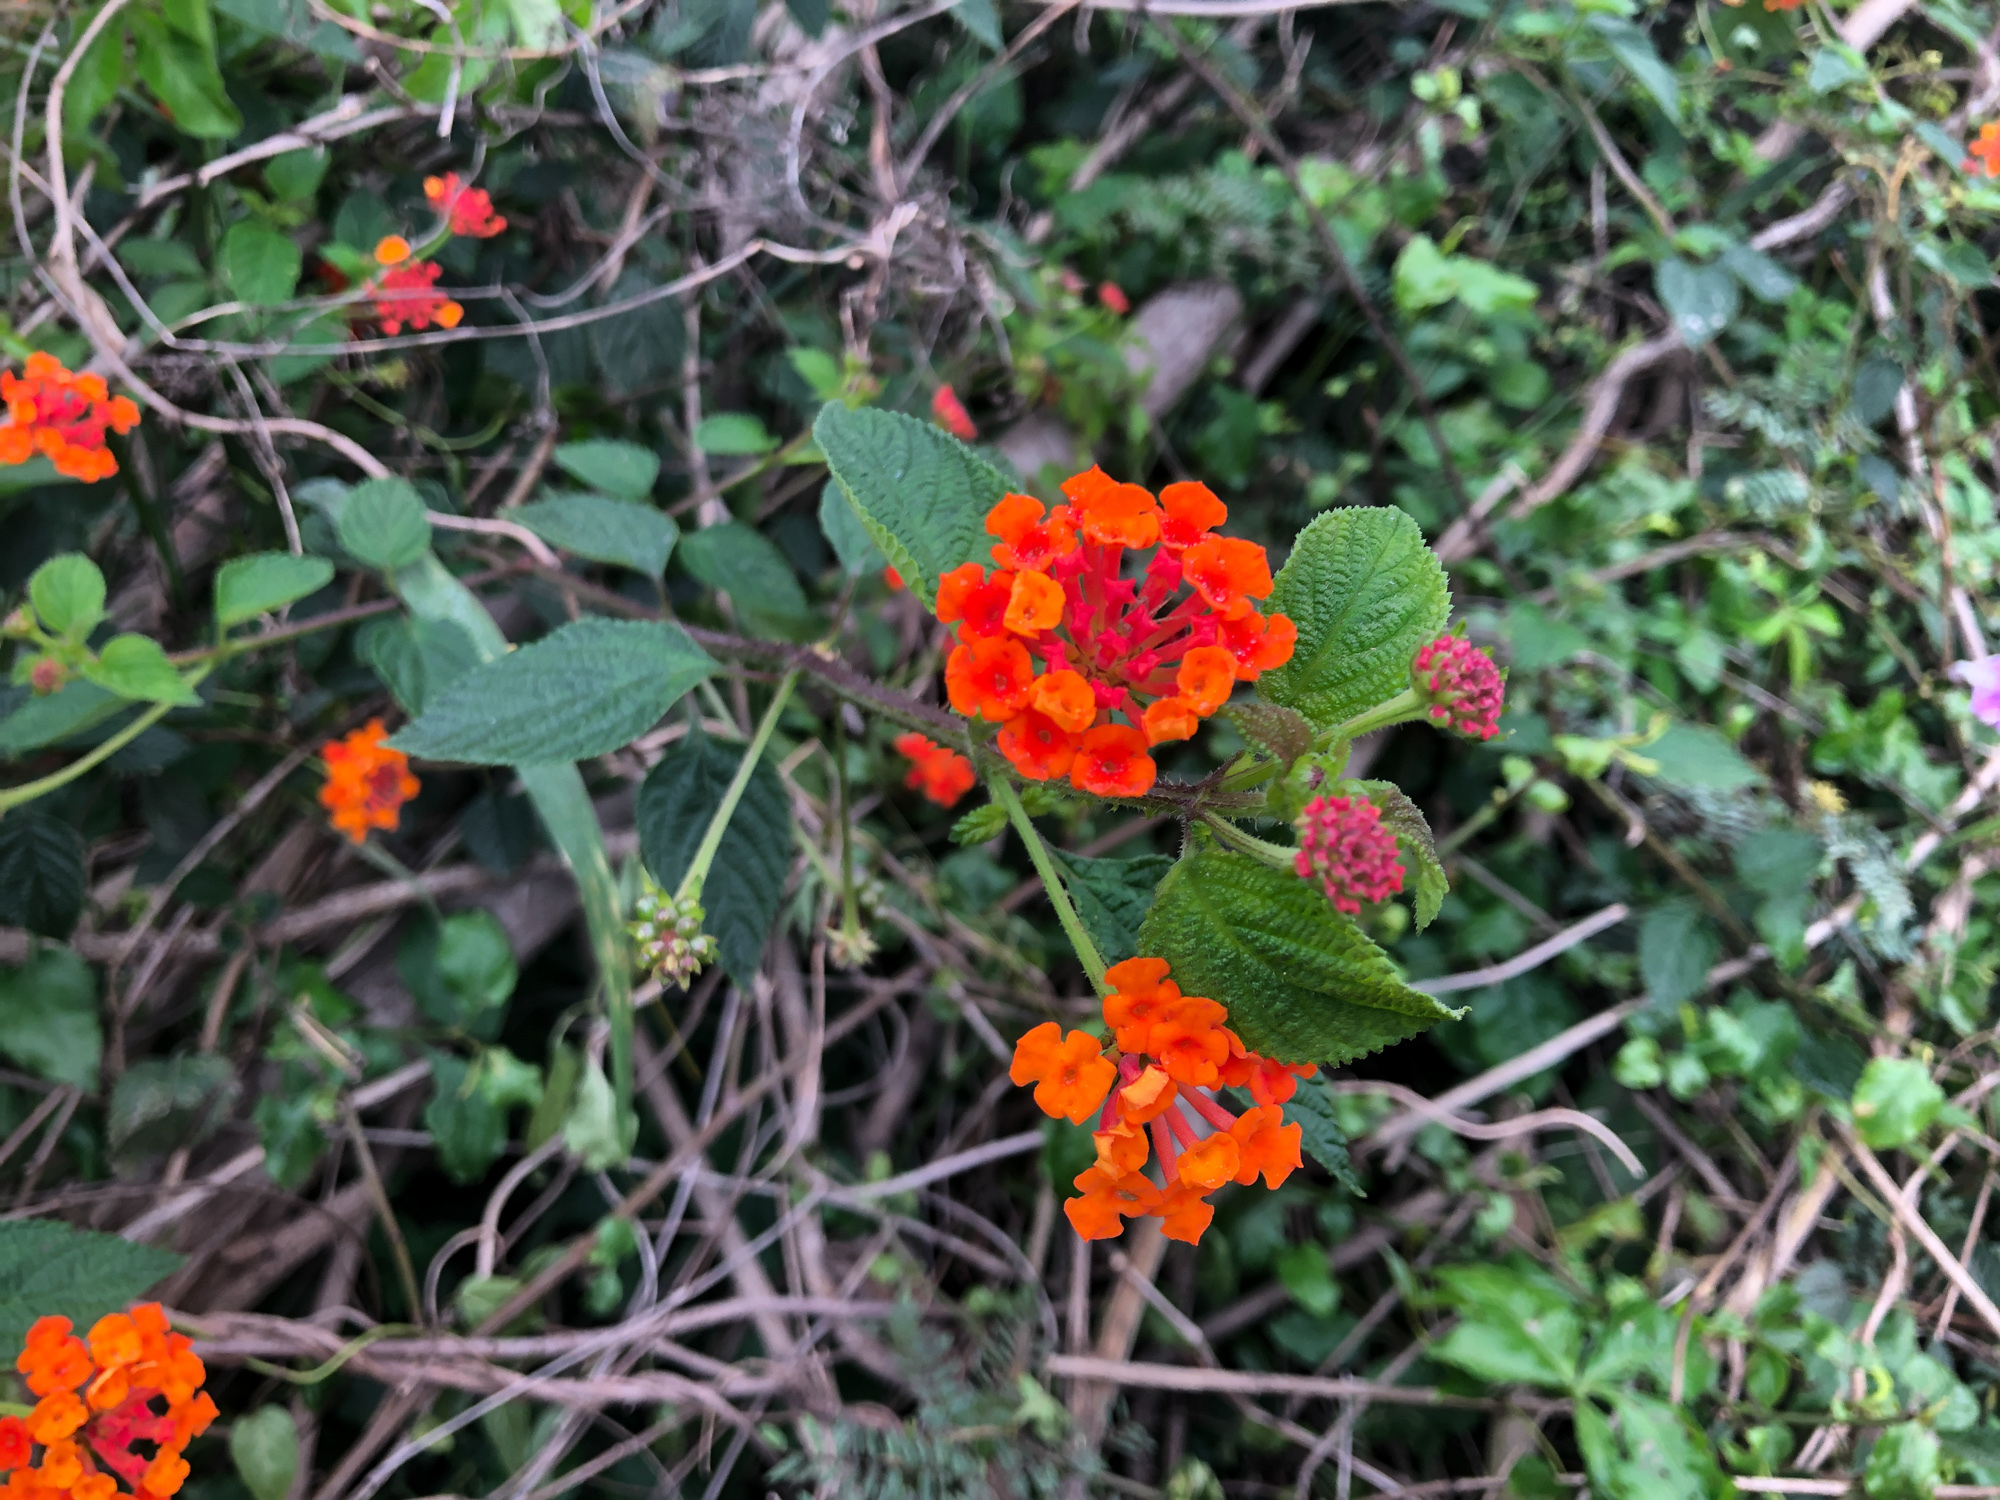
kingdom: Plantae
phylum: Tracheophyta
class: Magnoliopsida
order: Lamiales
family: Verbenaceae
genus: Lantana
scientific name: Lantana camara
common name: Lantana
